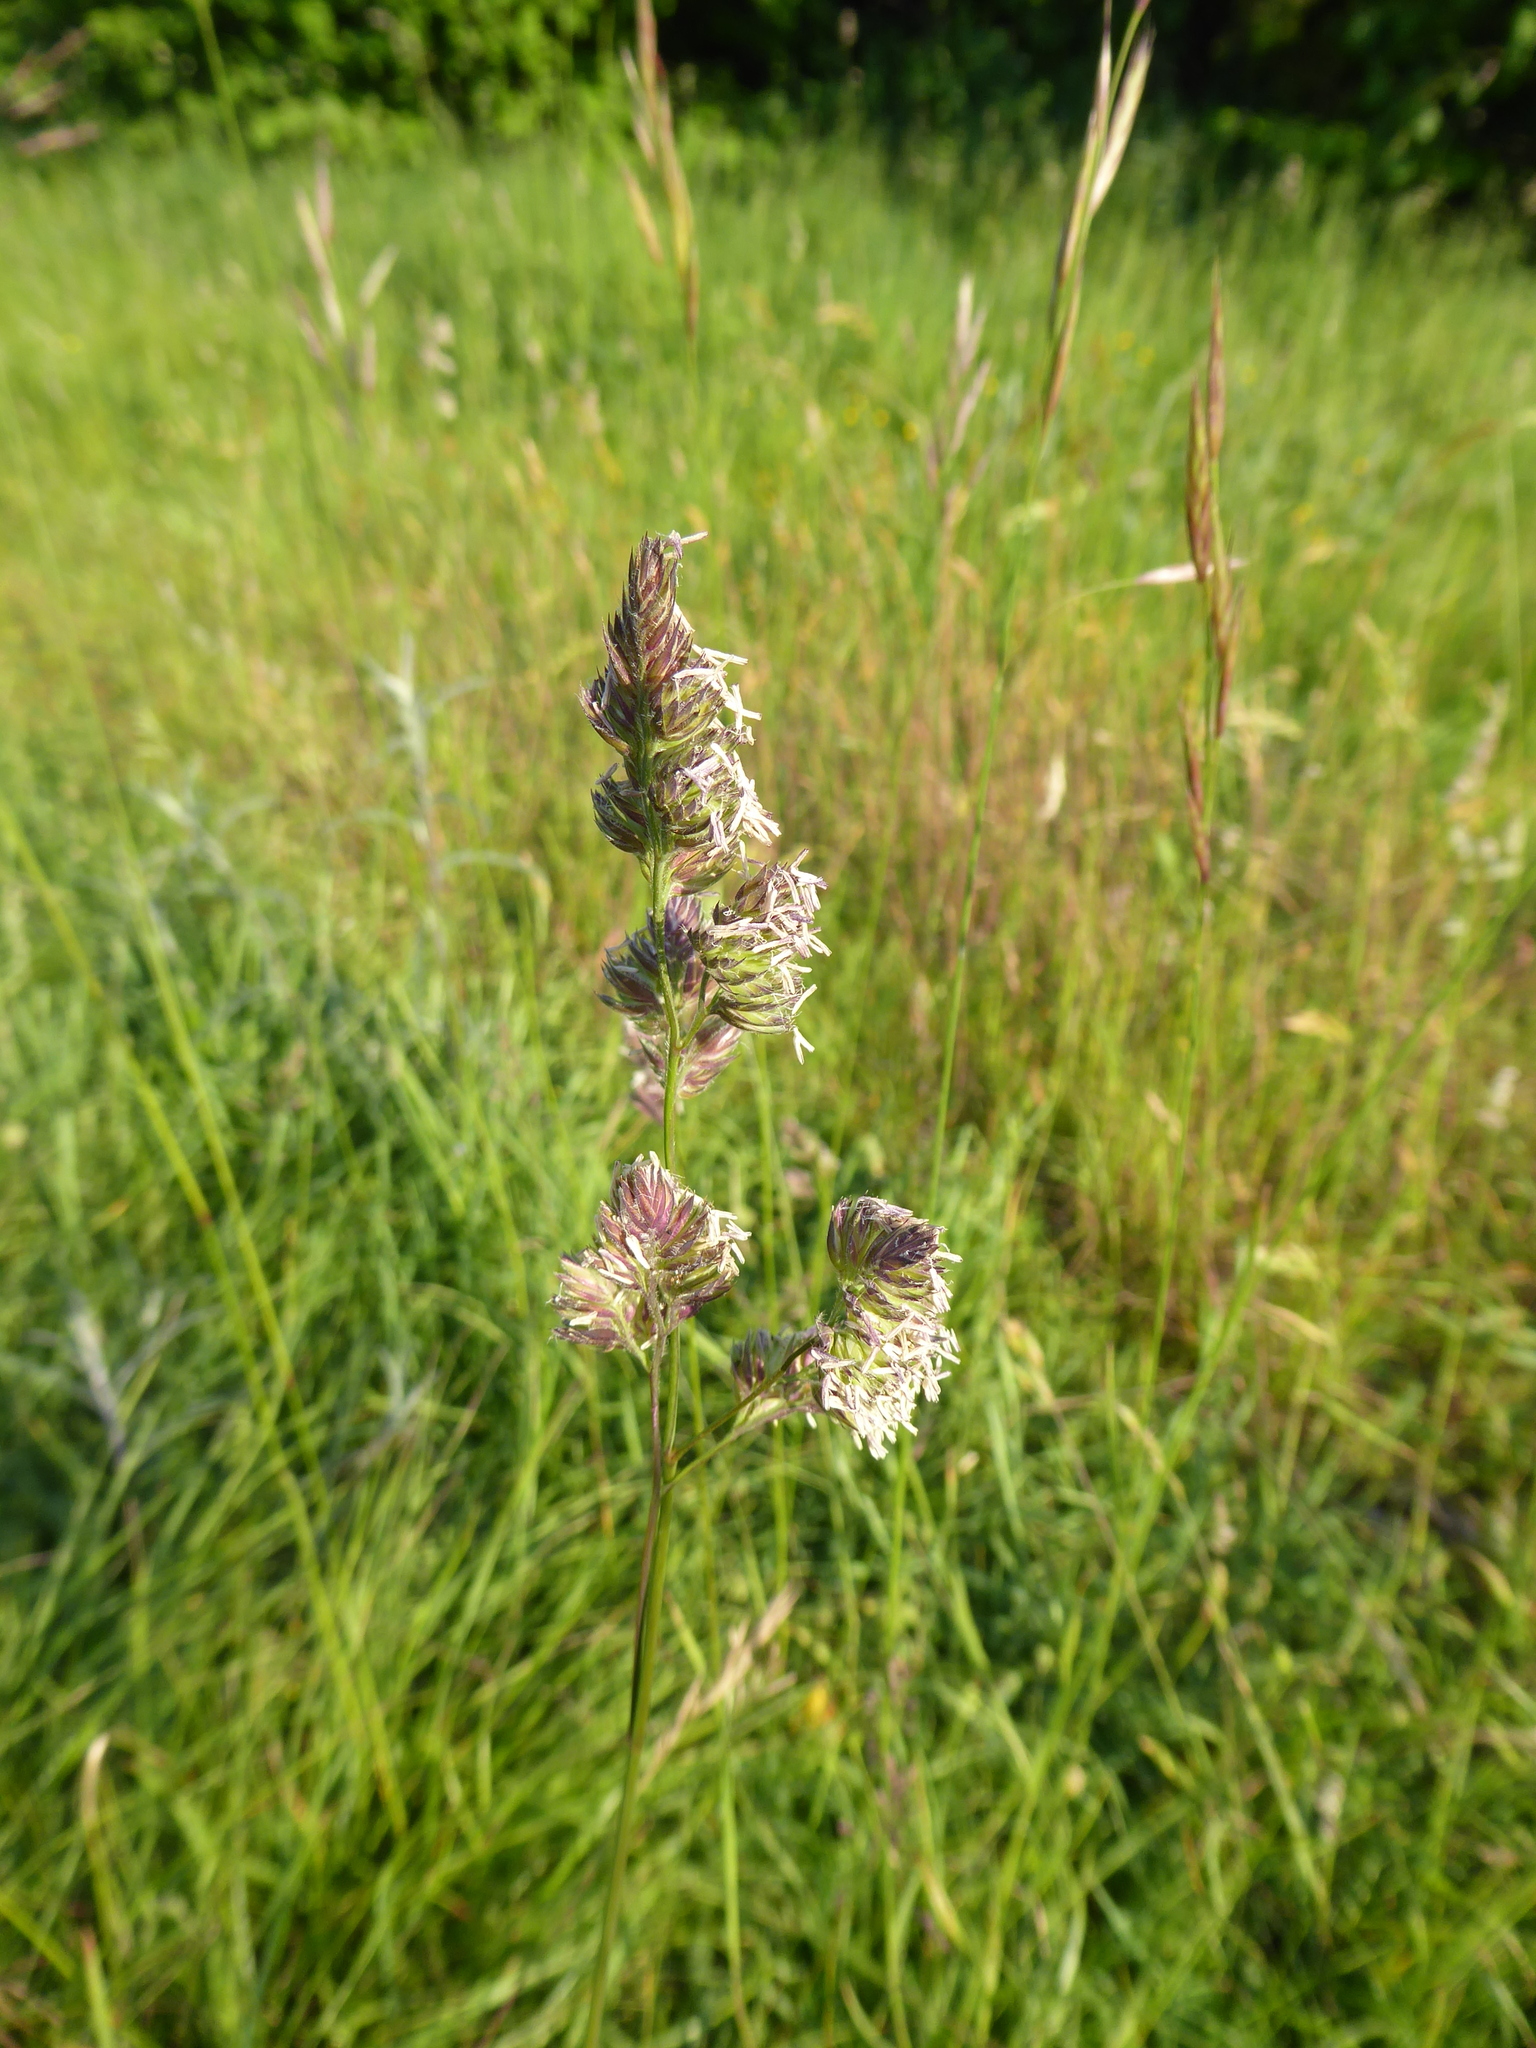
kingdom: Plantae
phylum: Tracheophyta
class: Liliopsida
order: Poales
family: Poaceae
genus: Dactylis
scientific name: Dactylis glomerata
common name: Orchardgrass
